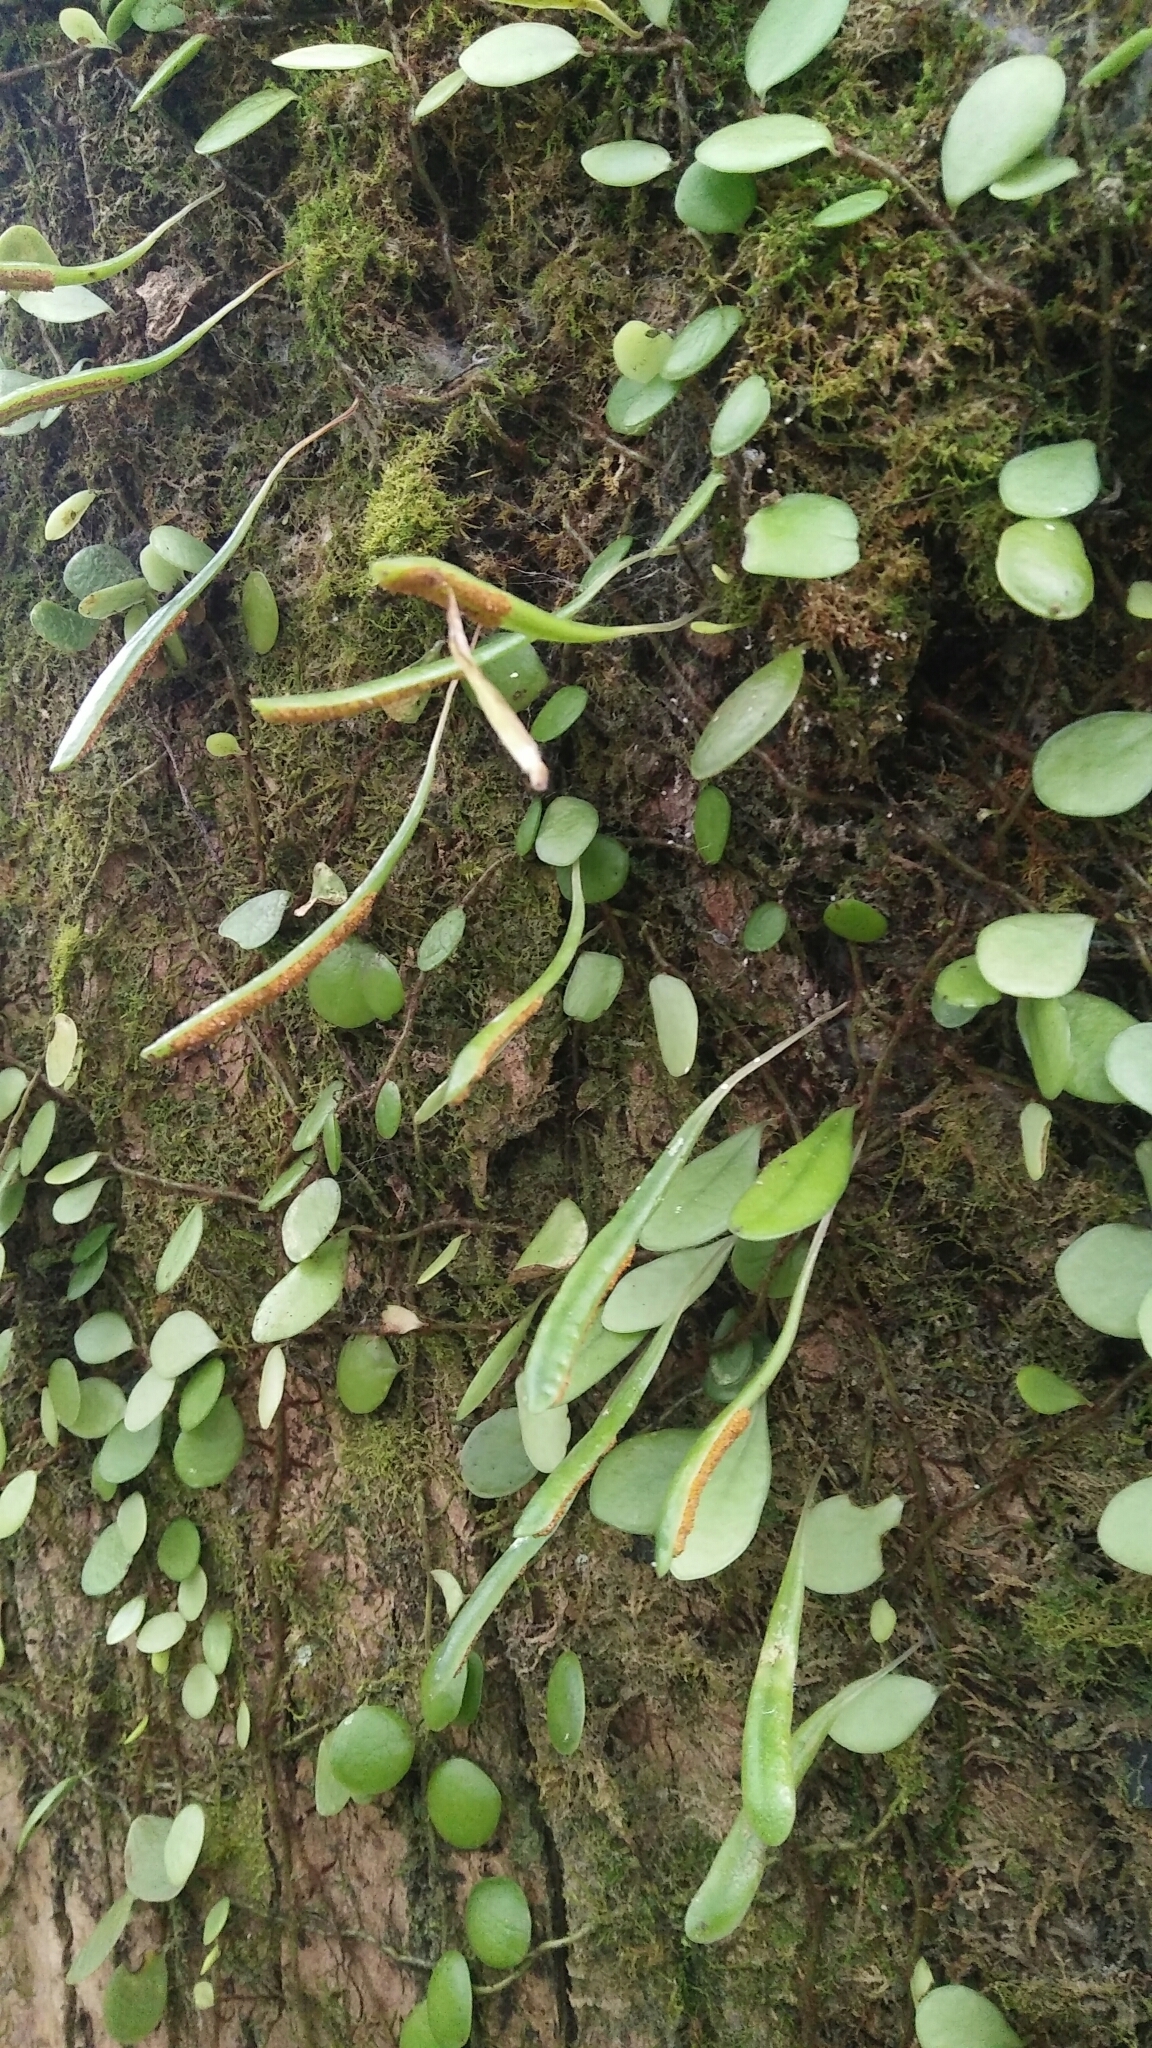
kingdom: Plantae
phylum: Tracheophyta
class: Polypodiopsida
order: Polypodiales
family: Polypodiaceae
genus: Lepisorus
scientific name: Lepisorus microphyllus
